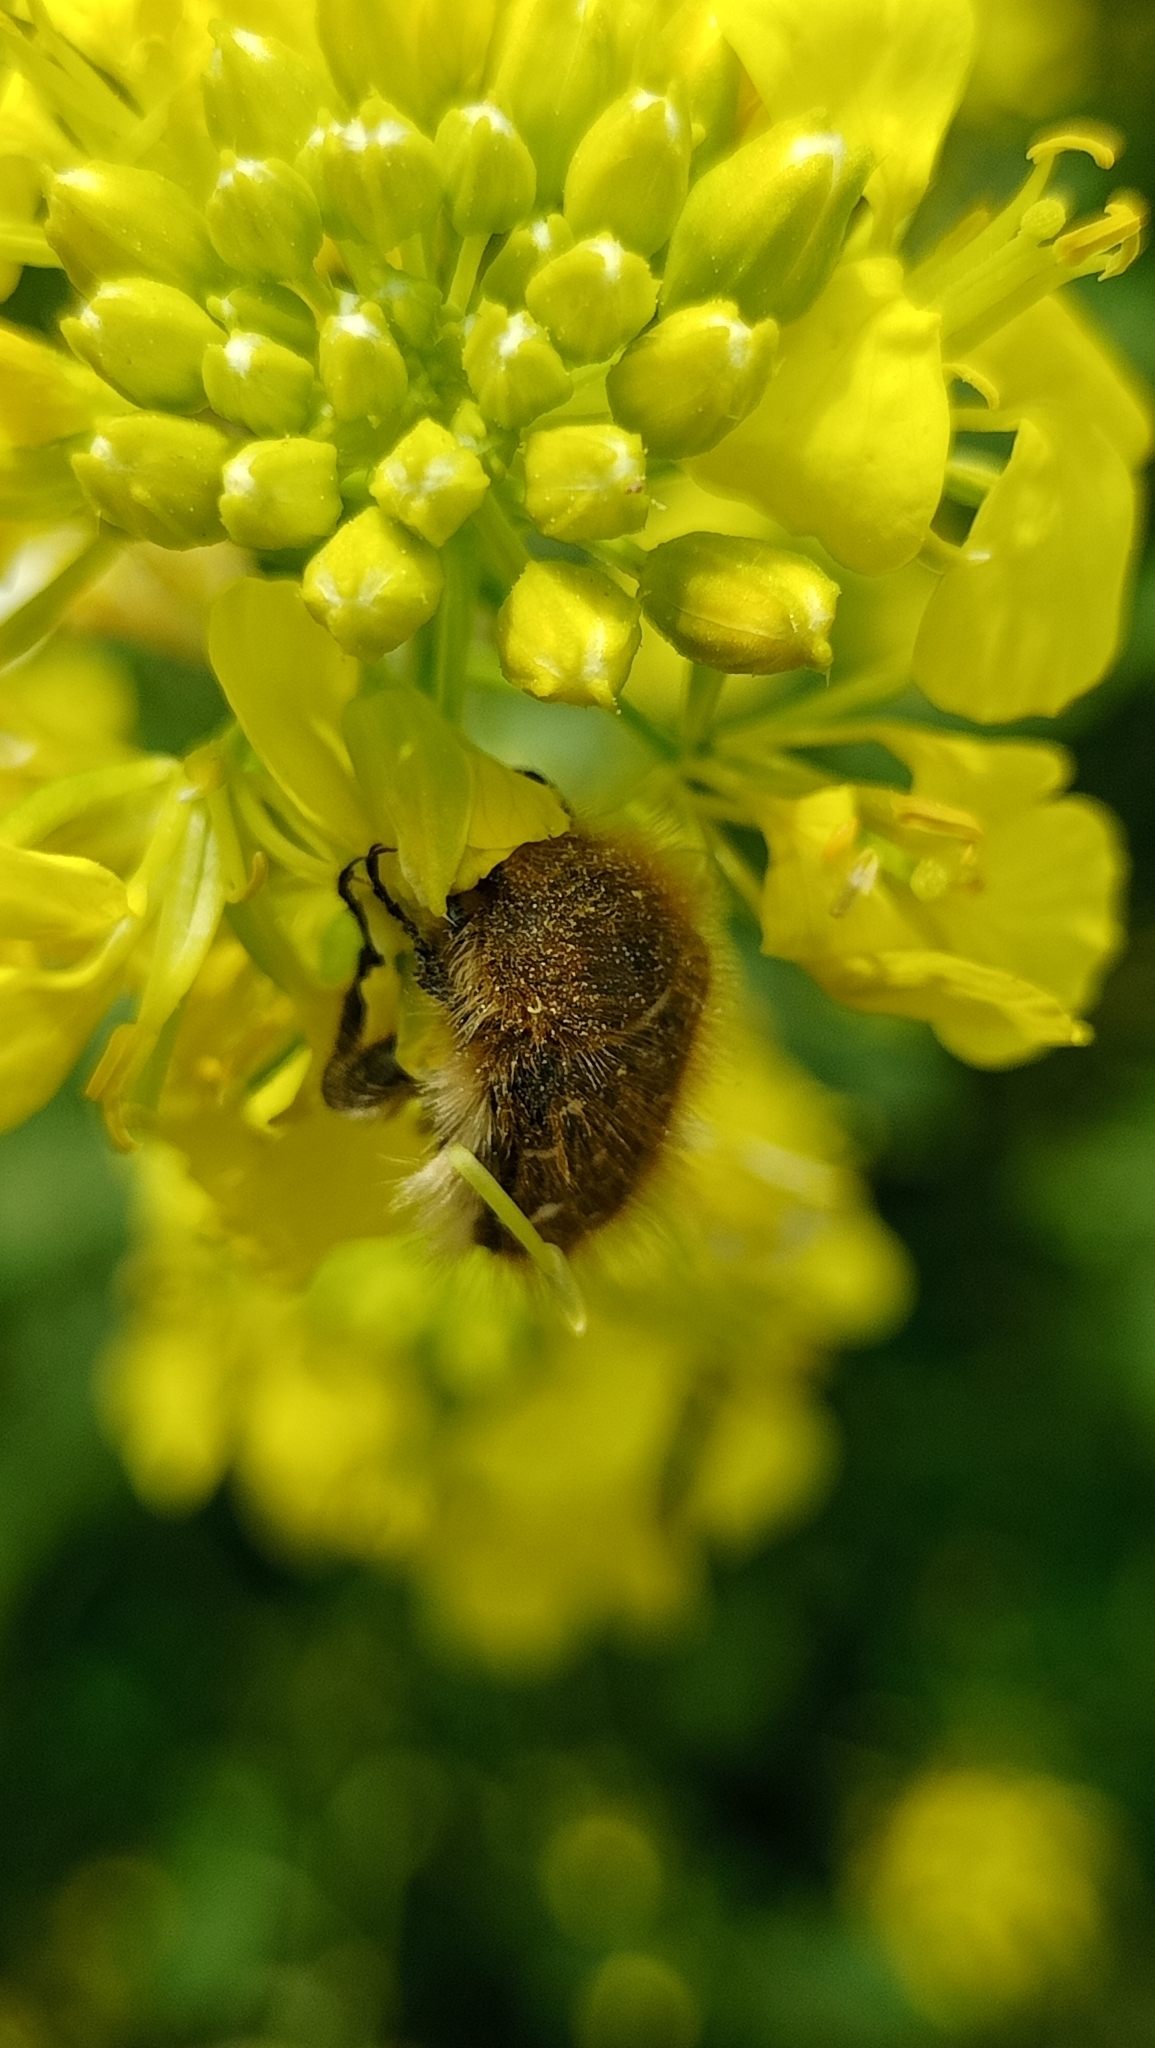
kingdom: Animalia
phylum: Arthropoda
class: Insecta
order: Coleoptera
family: Scarabaeidae
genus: Tropinota
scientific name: Tropinota hirta
